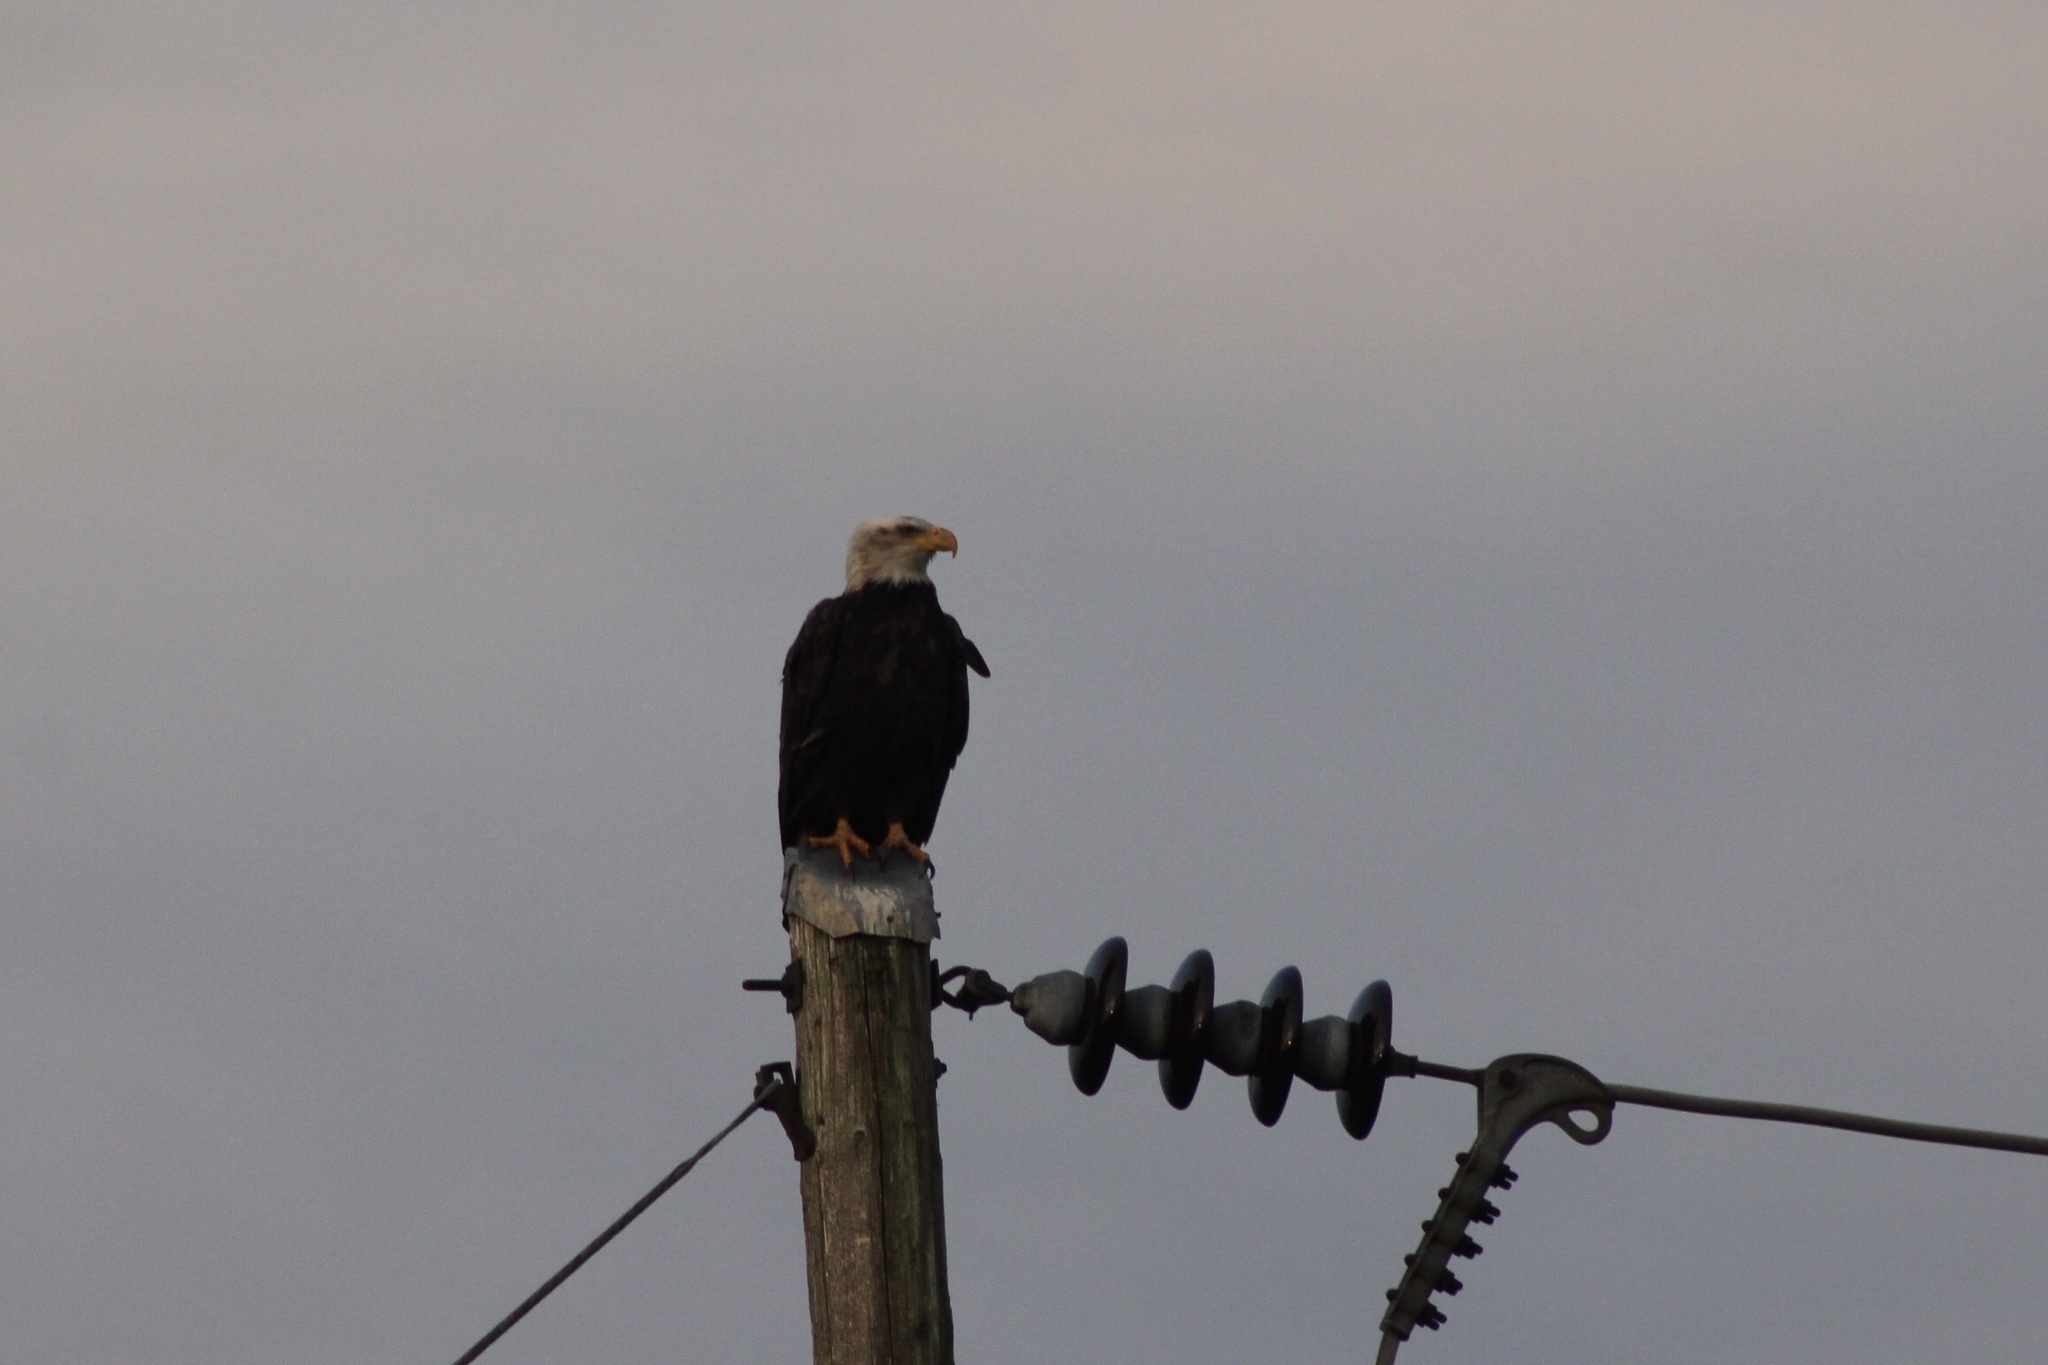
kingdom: Animalia
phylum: Chordata
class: Aves
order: Accipitriformes
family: Accipitridae
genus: Haliaeetus
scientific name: Haliaeetus leucocephalus
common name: Bald eagle
